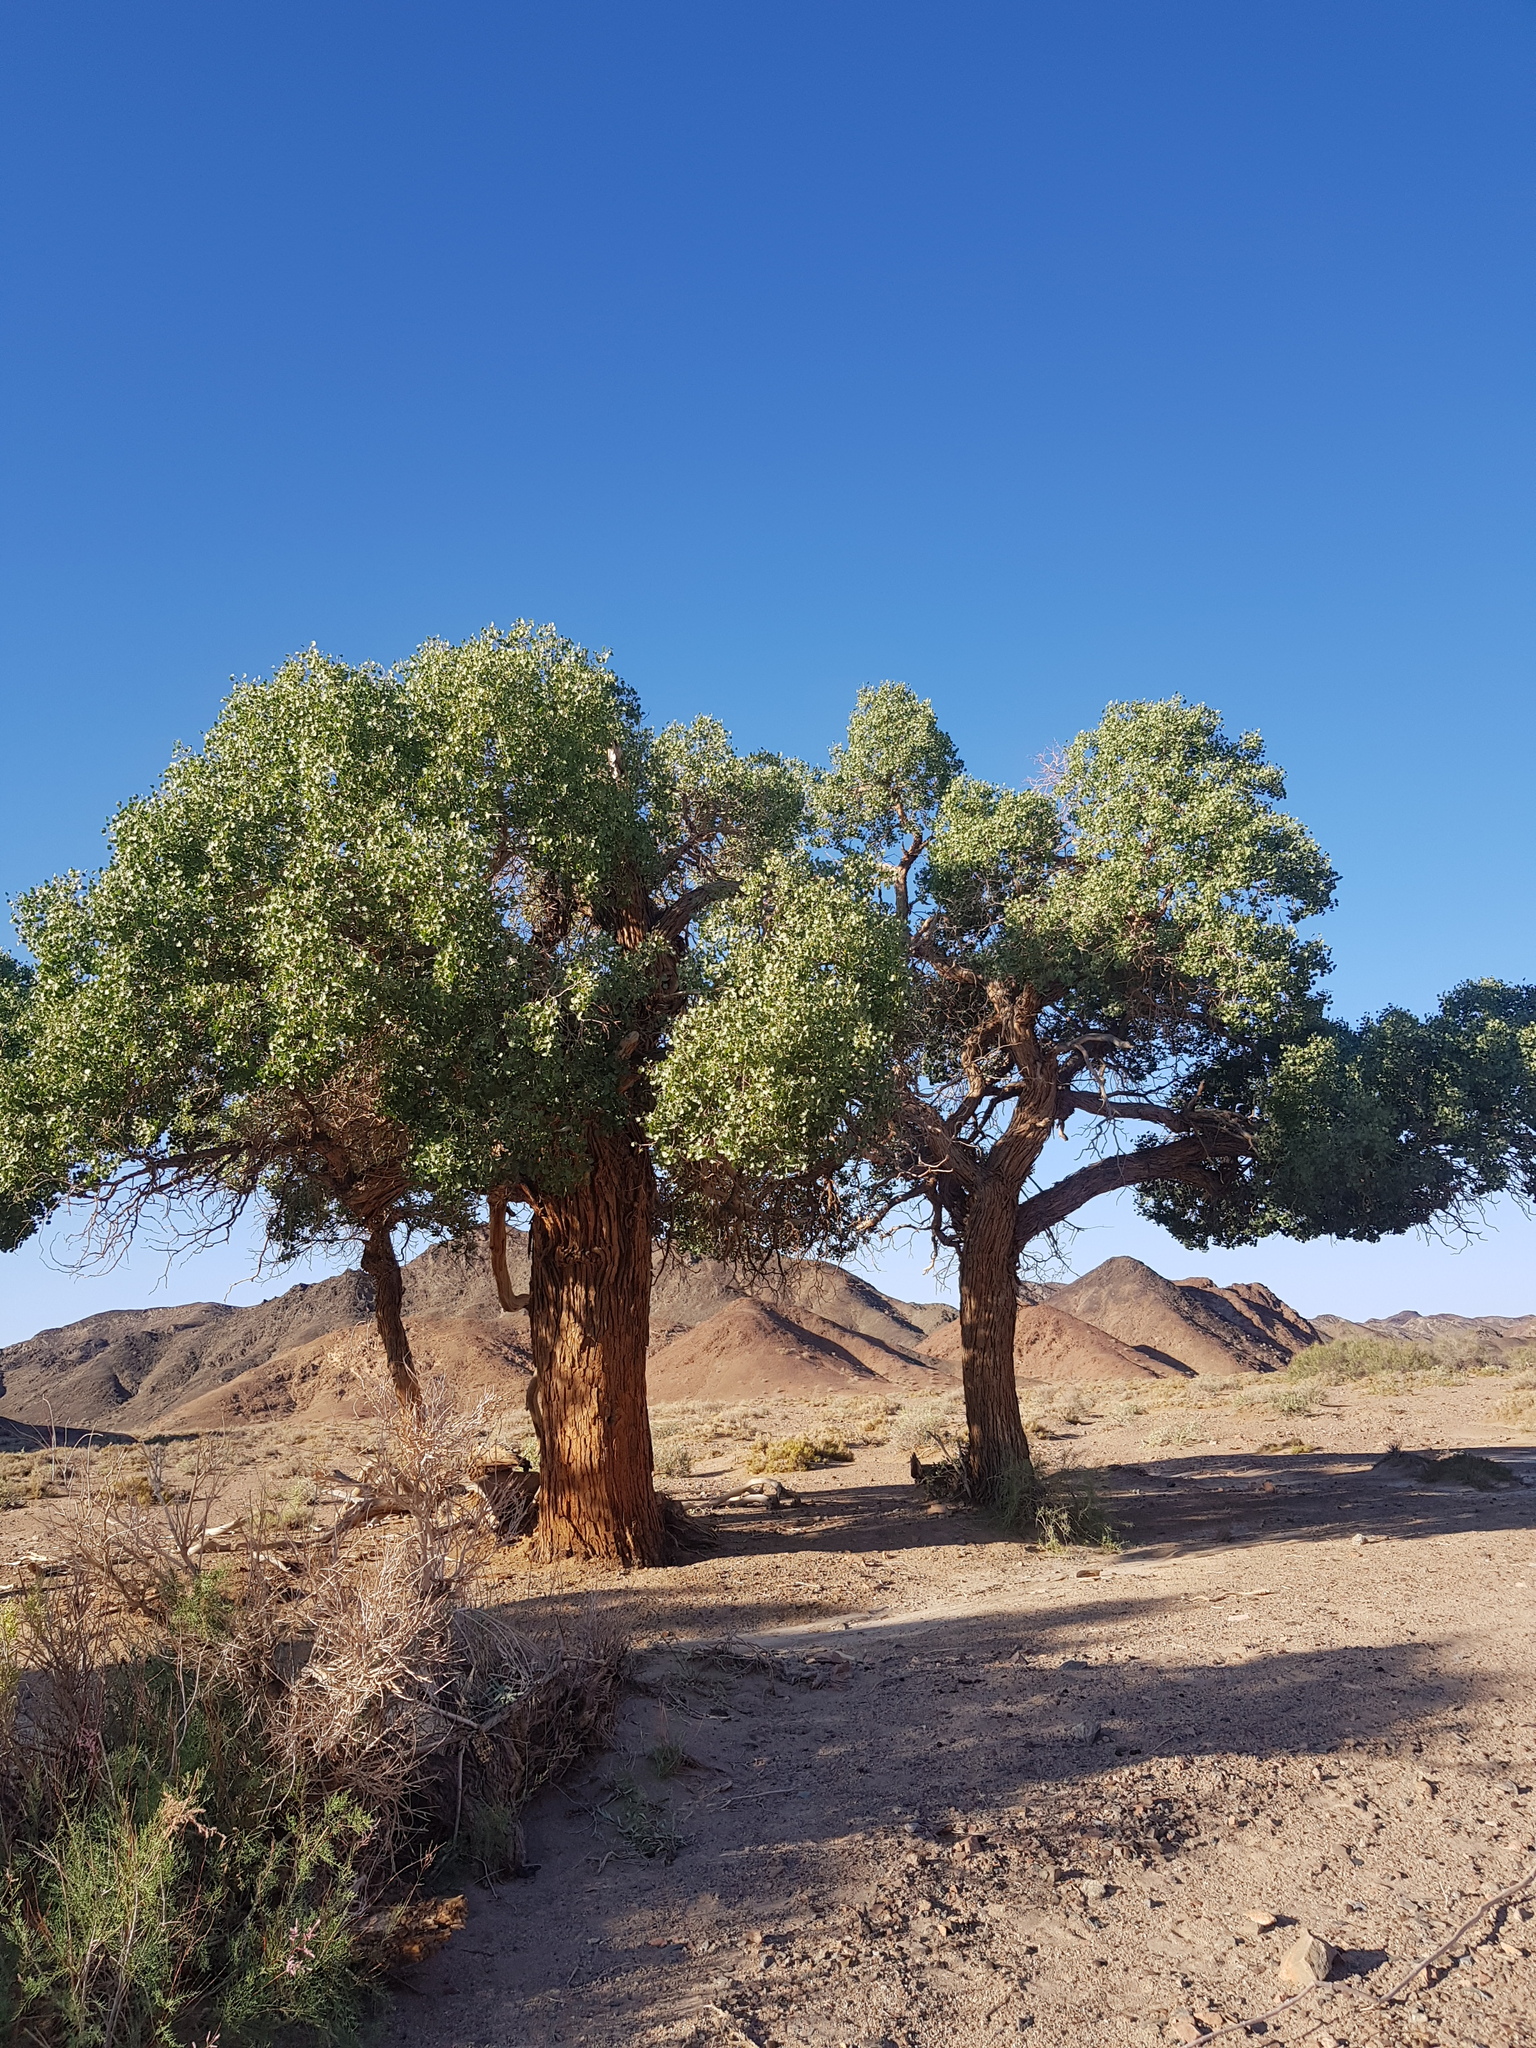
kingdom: Plantae
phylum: Tracheophyta
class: Magnoliopsida
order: Malpighiales
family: Salicaceae
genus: Populus
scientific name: Populus euphratica
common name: Euphrates poplar
